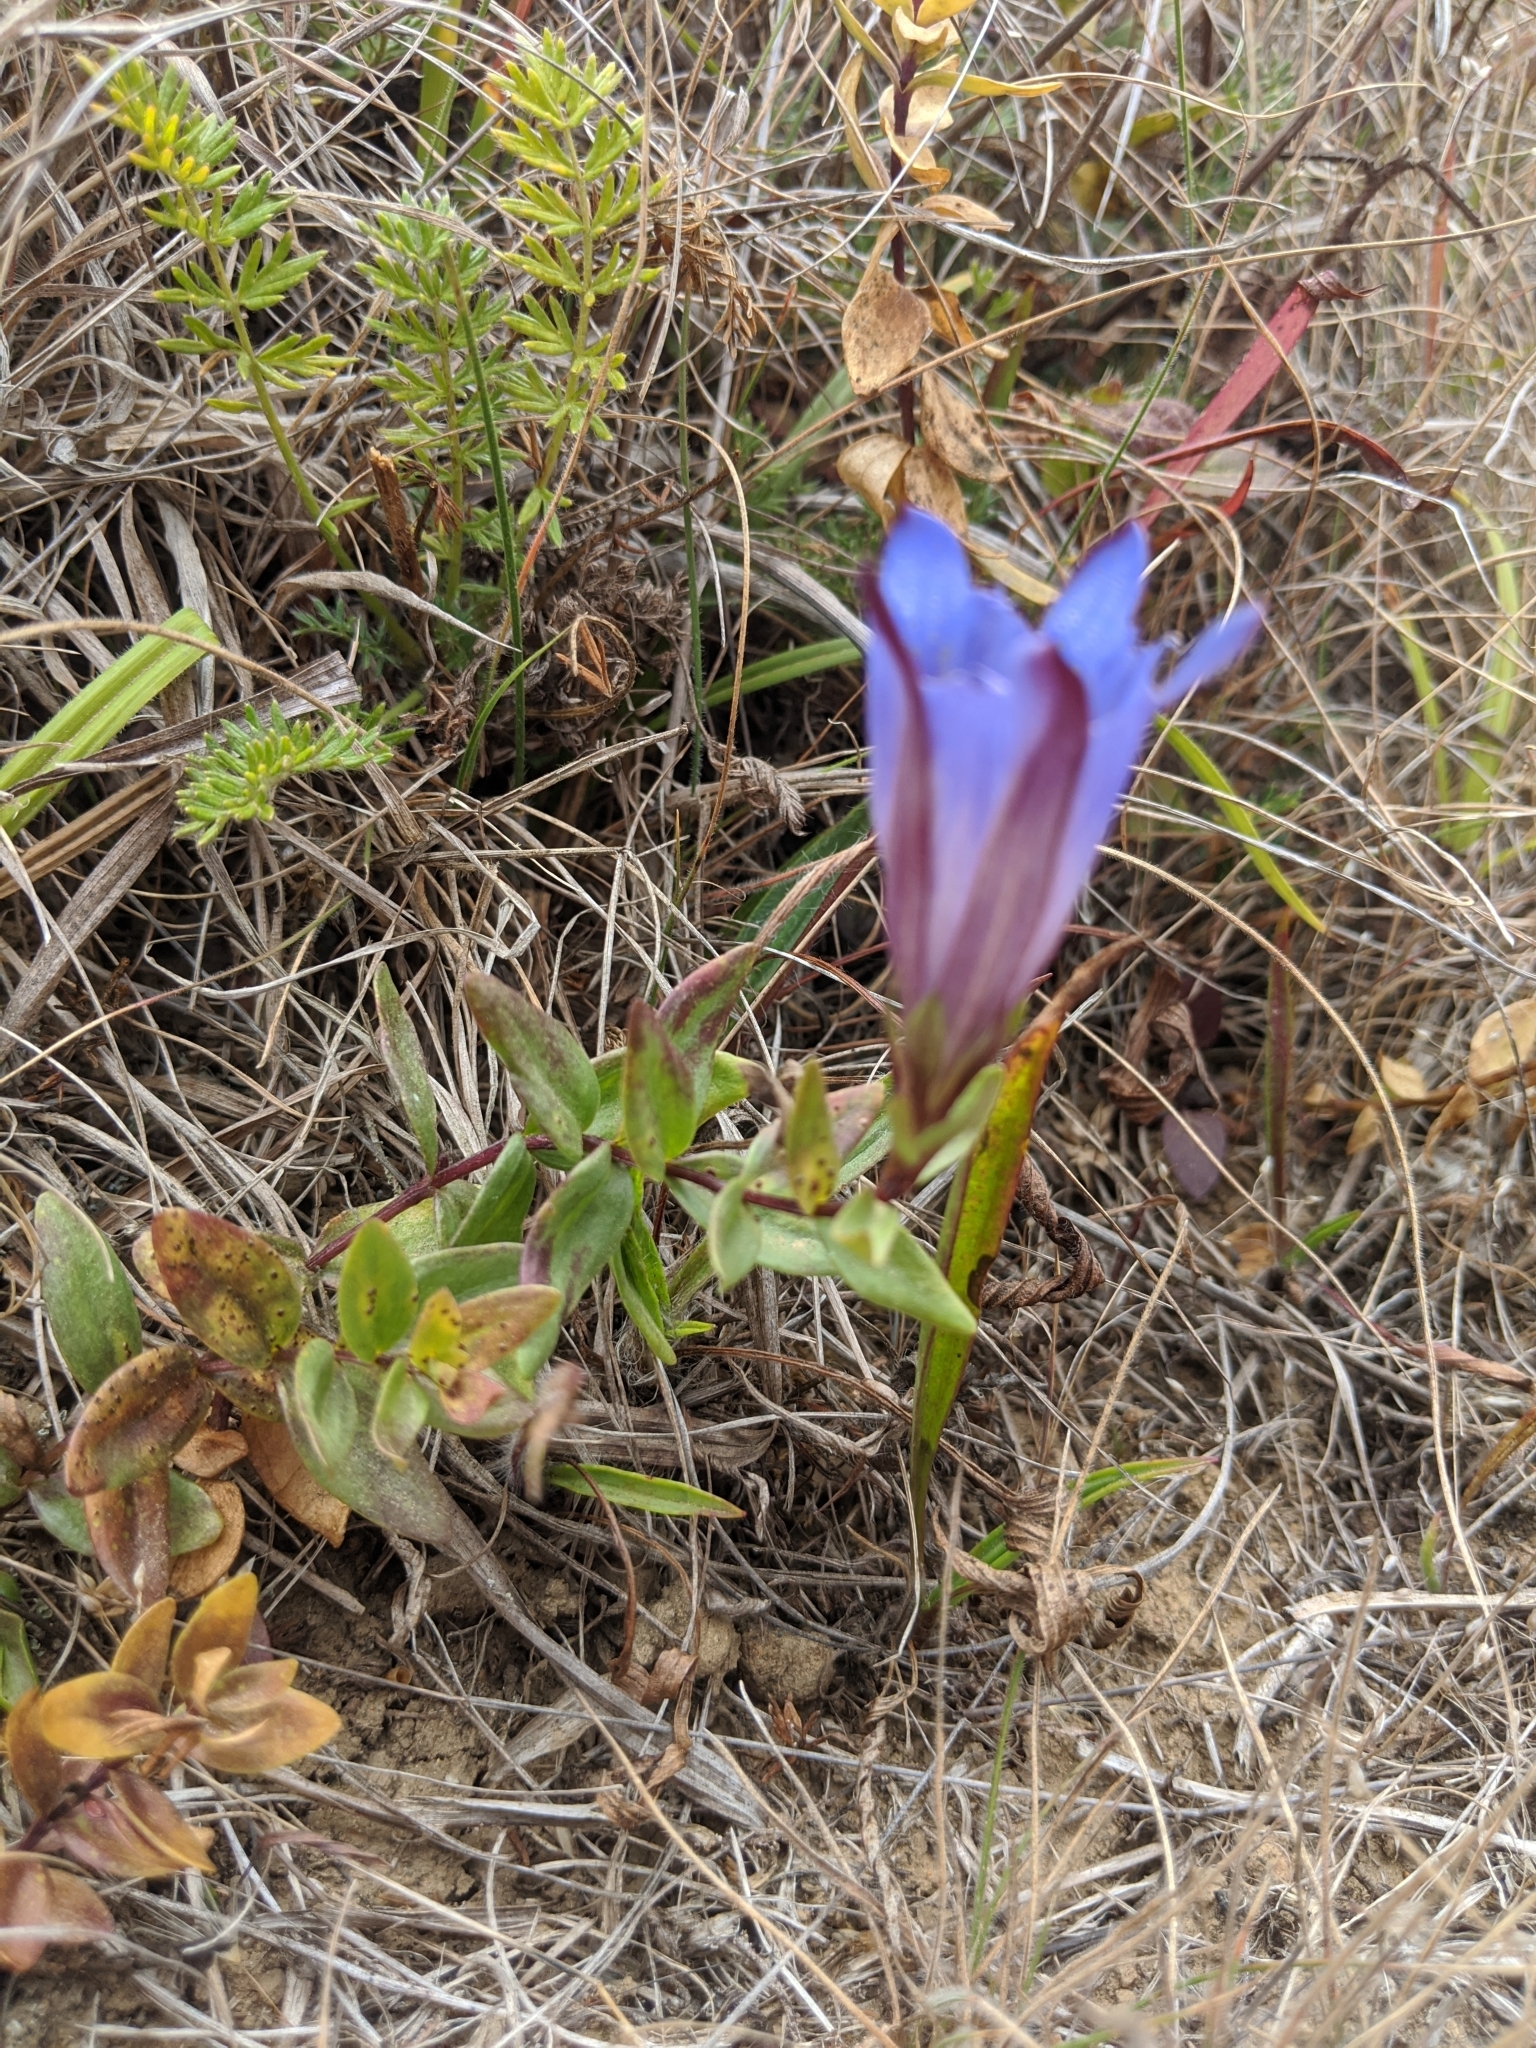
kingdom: Plantae
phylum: Tracheophyta
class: Magnoliopsida
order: Gentianales
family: Gentianaceae
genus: Gentiana
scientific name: Gentiana affinis
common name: Rocky mountain gentian
